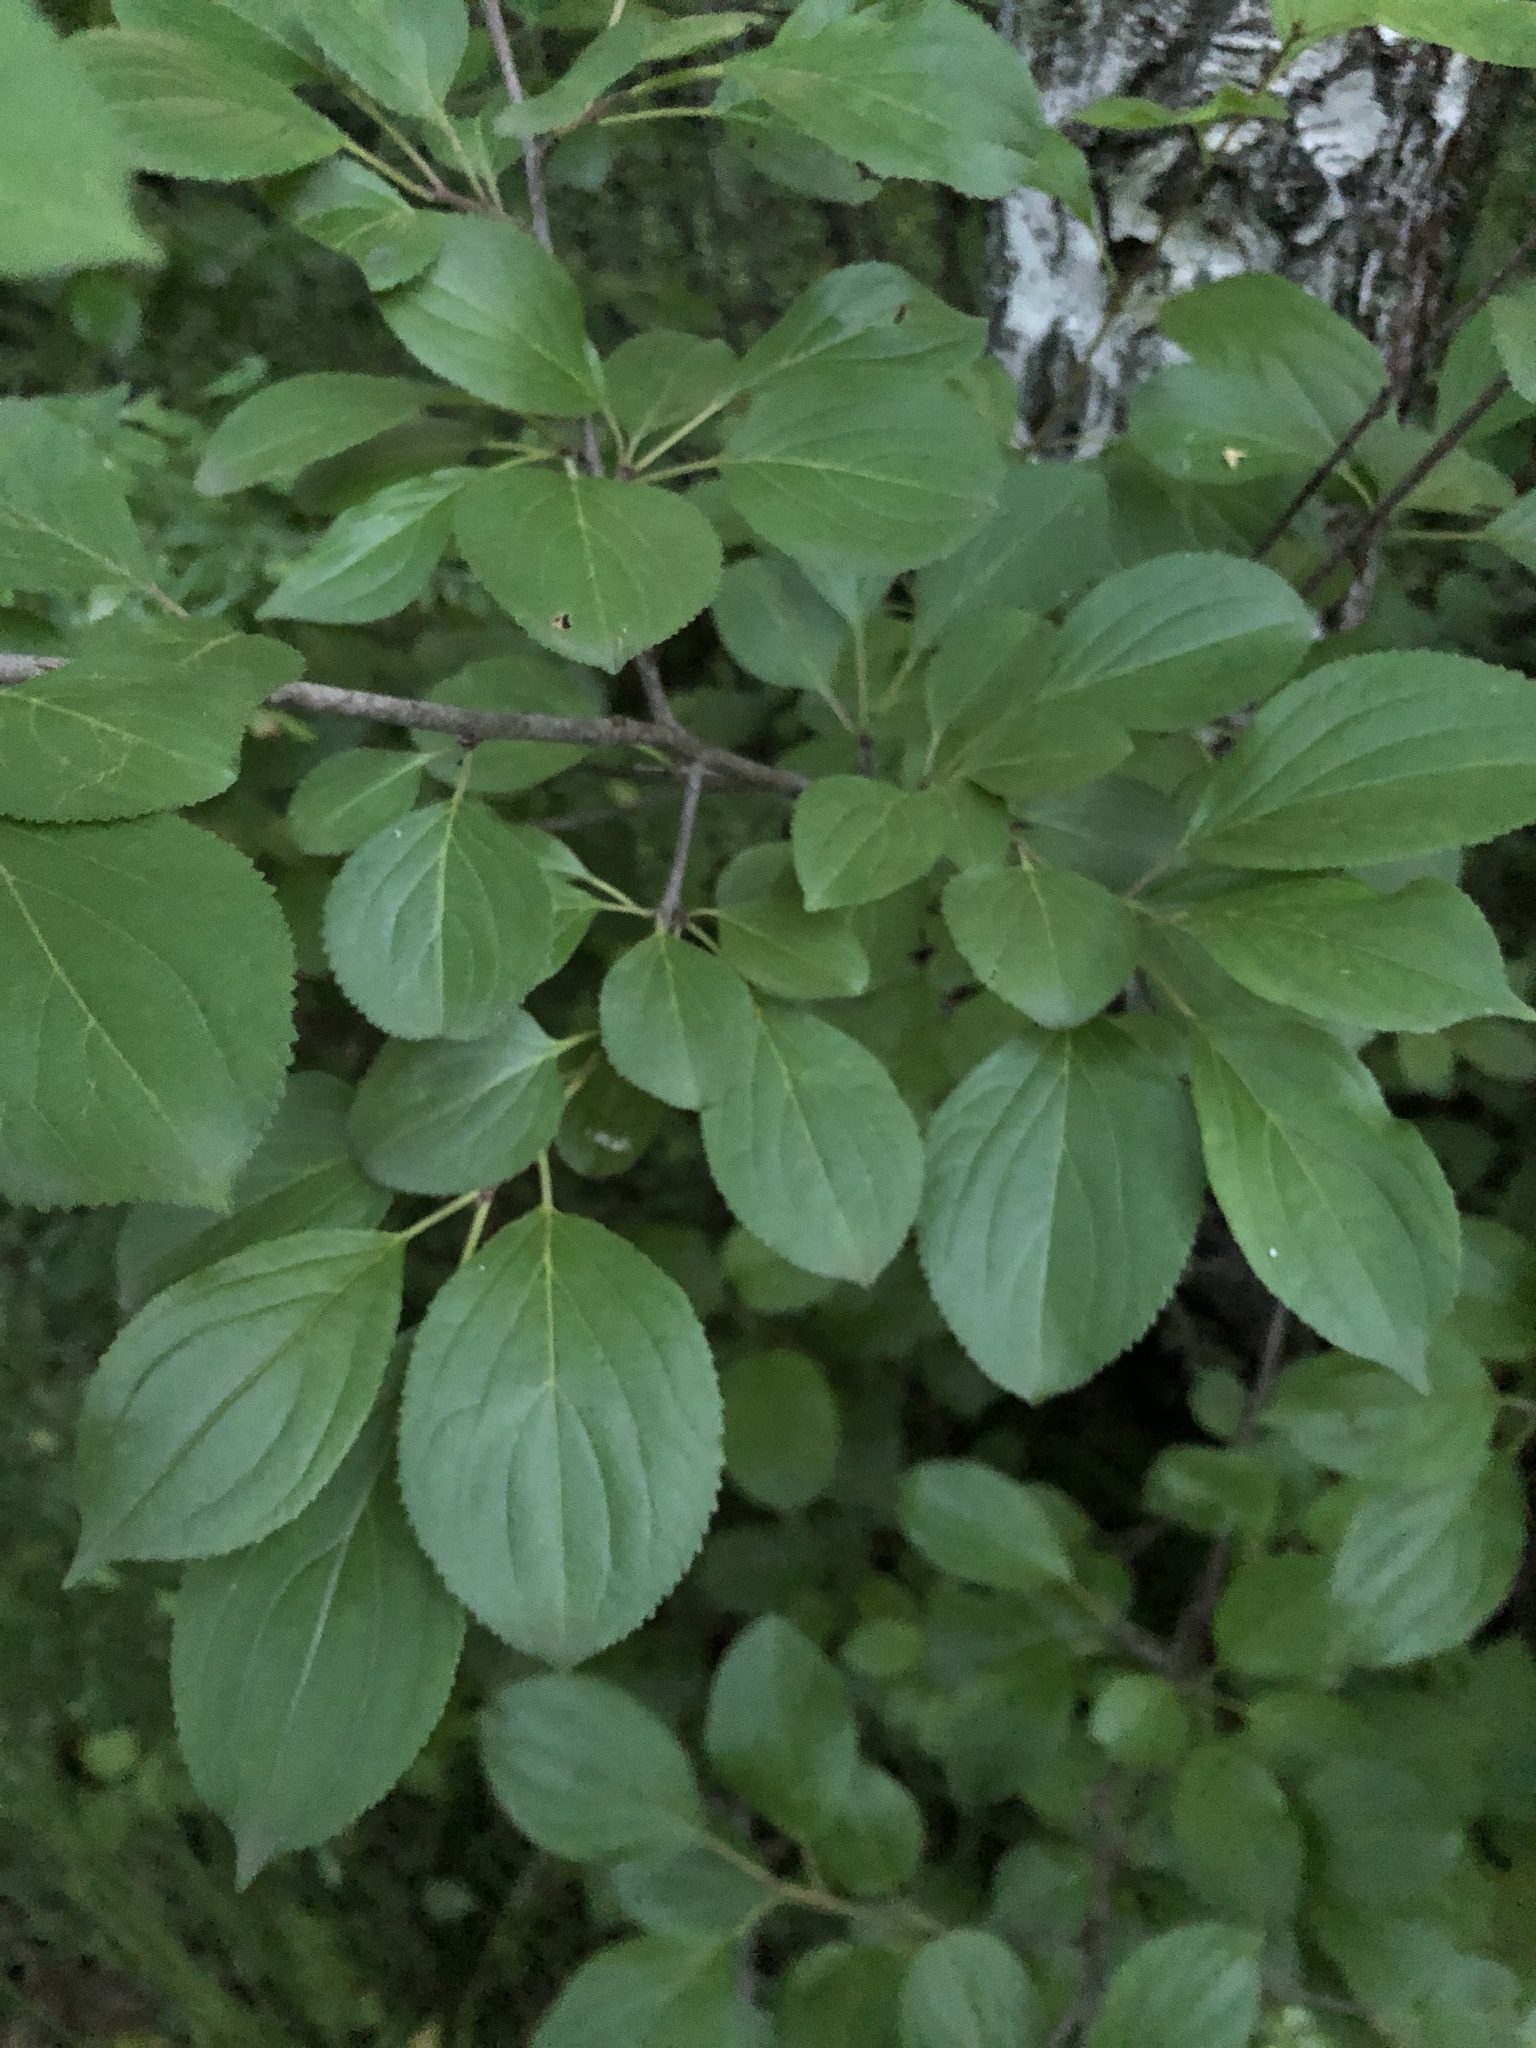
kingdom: Plantae
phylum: Tracheophyta
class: Magnoliopsida
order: Rosales
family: Rhamnaceae
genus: Rhamnus
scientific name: Rhamnus cathartica
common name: Common buckthorn
